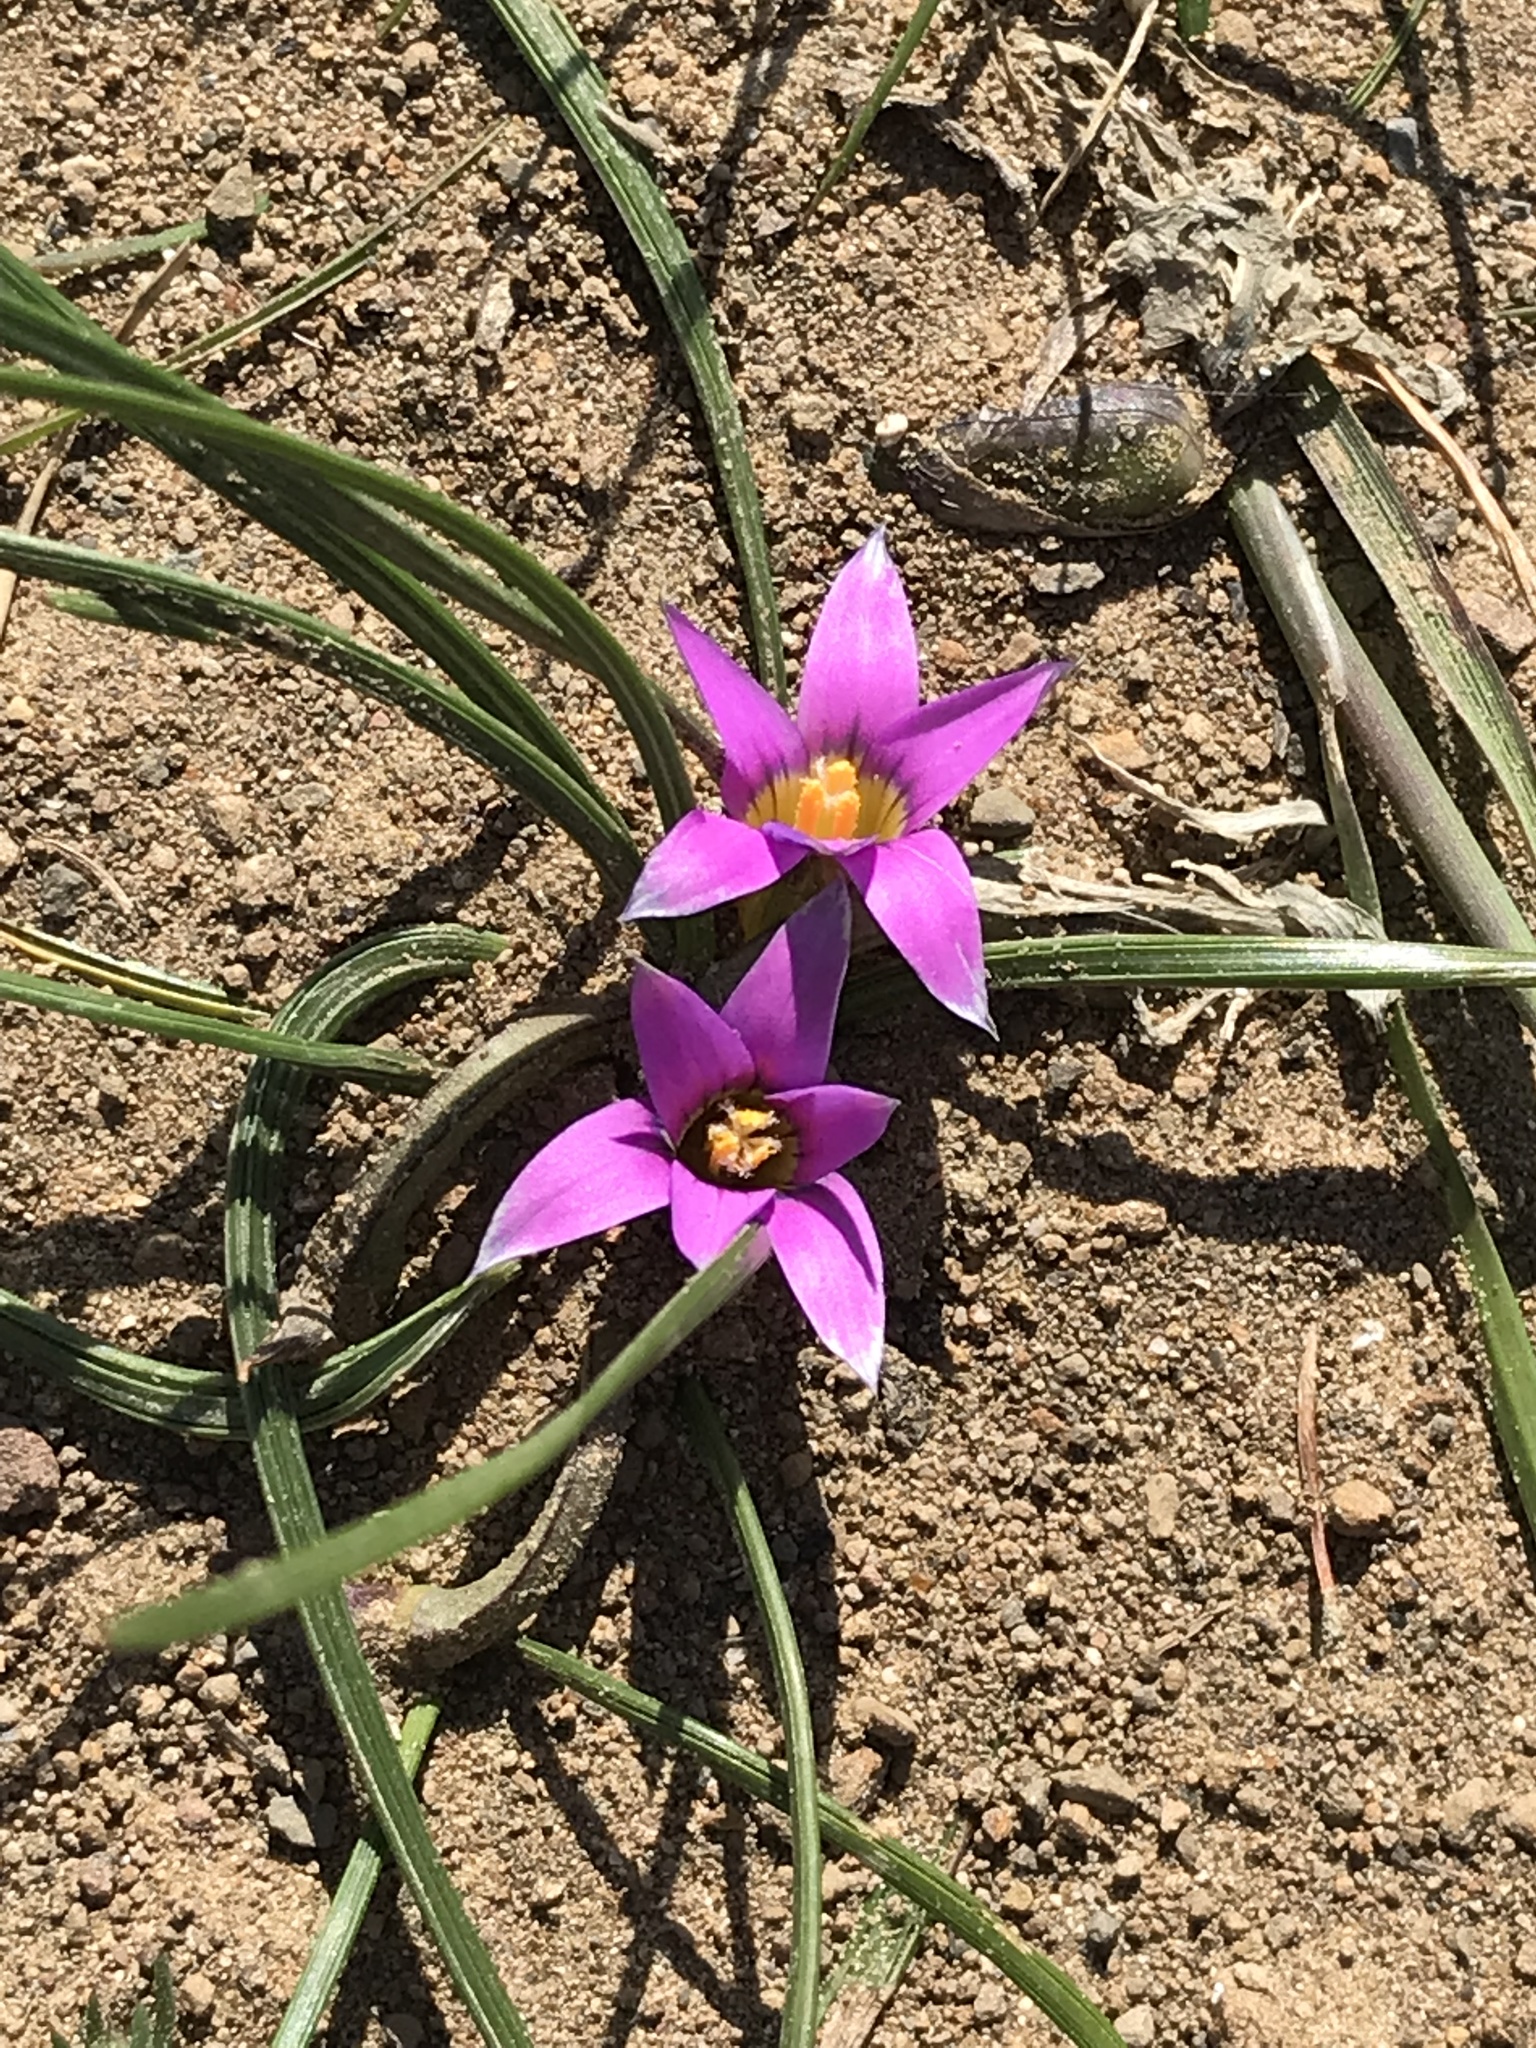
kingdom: Plantae
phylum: Tracheophyta
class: Liliopsida
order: Asparagales
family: Iridaceae
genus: Romulea
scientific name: Romulea rosea
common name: Oniongrass
